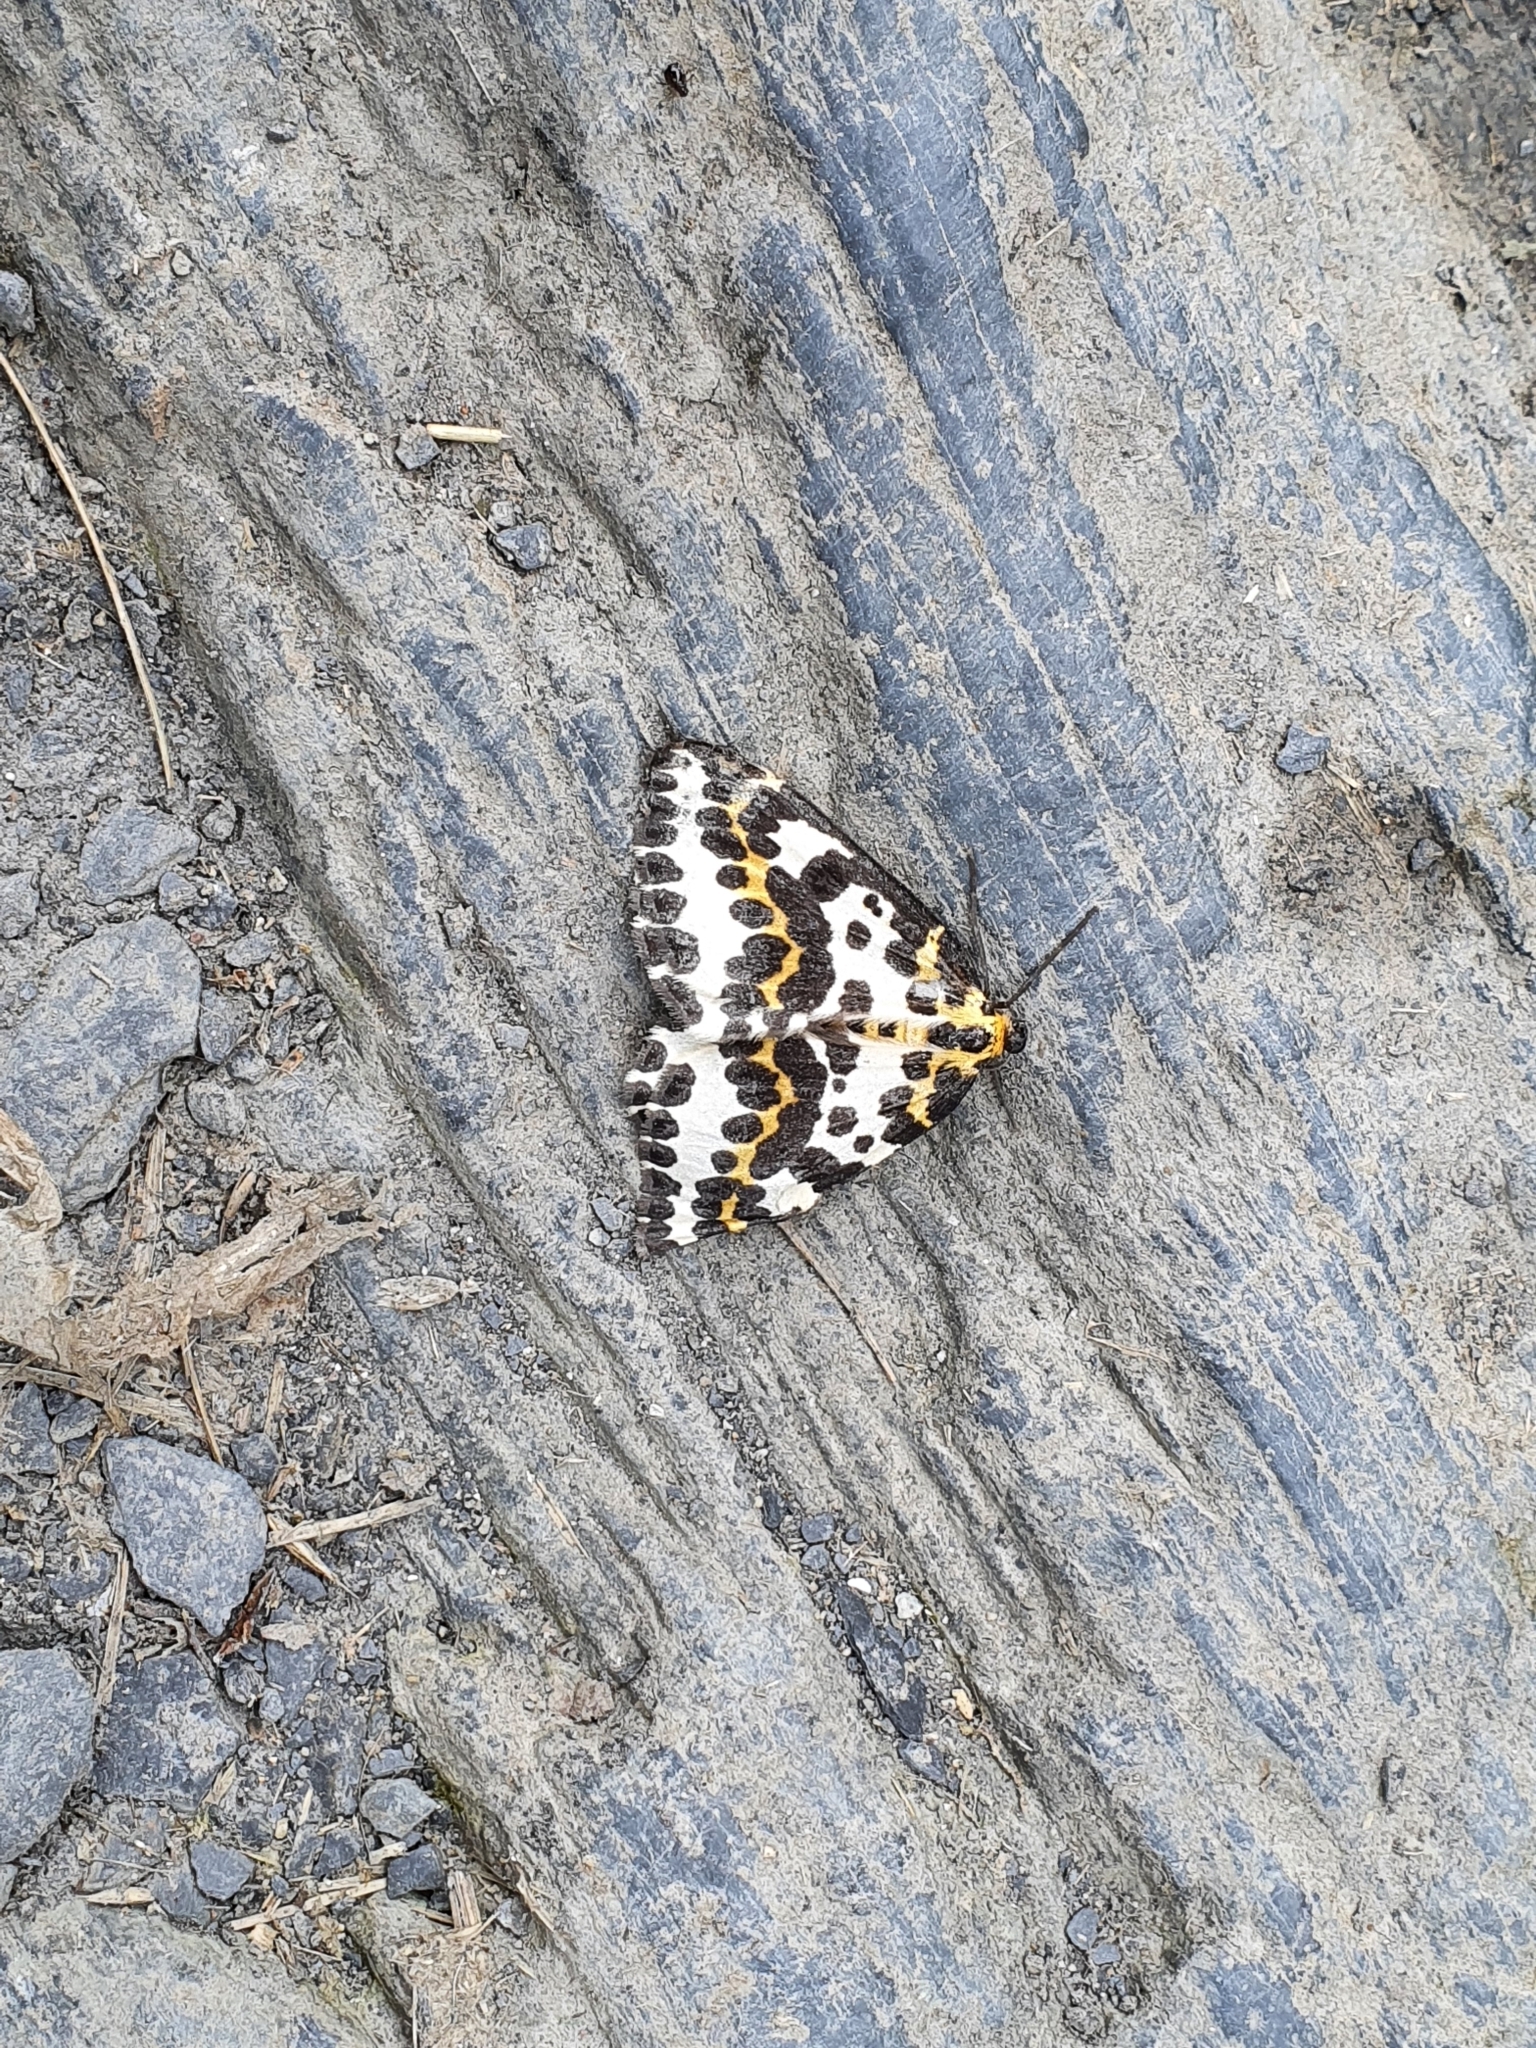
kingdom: Animalia
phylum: Arthropoda
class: Insecta
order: Lepidoptera
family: Geometridae
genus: Abraxas
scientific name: Abraxas grossulariata
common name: Magpie
